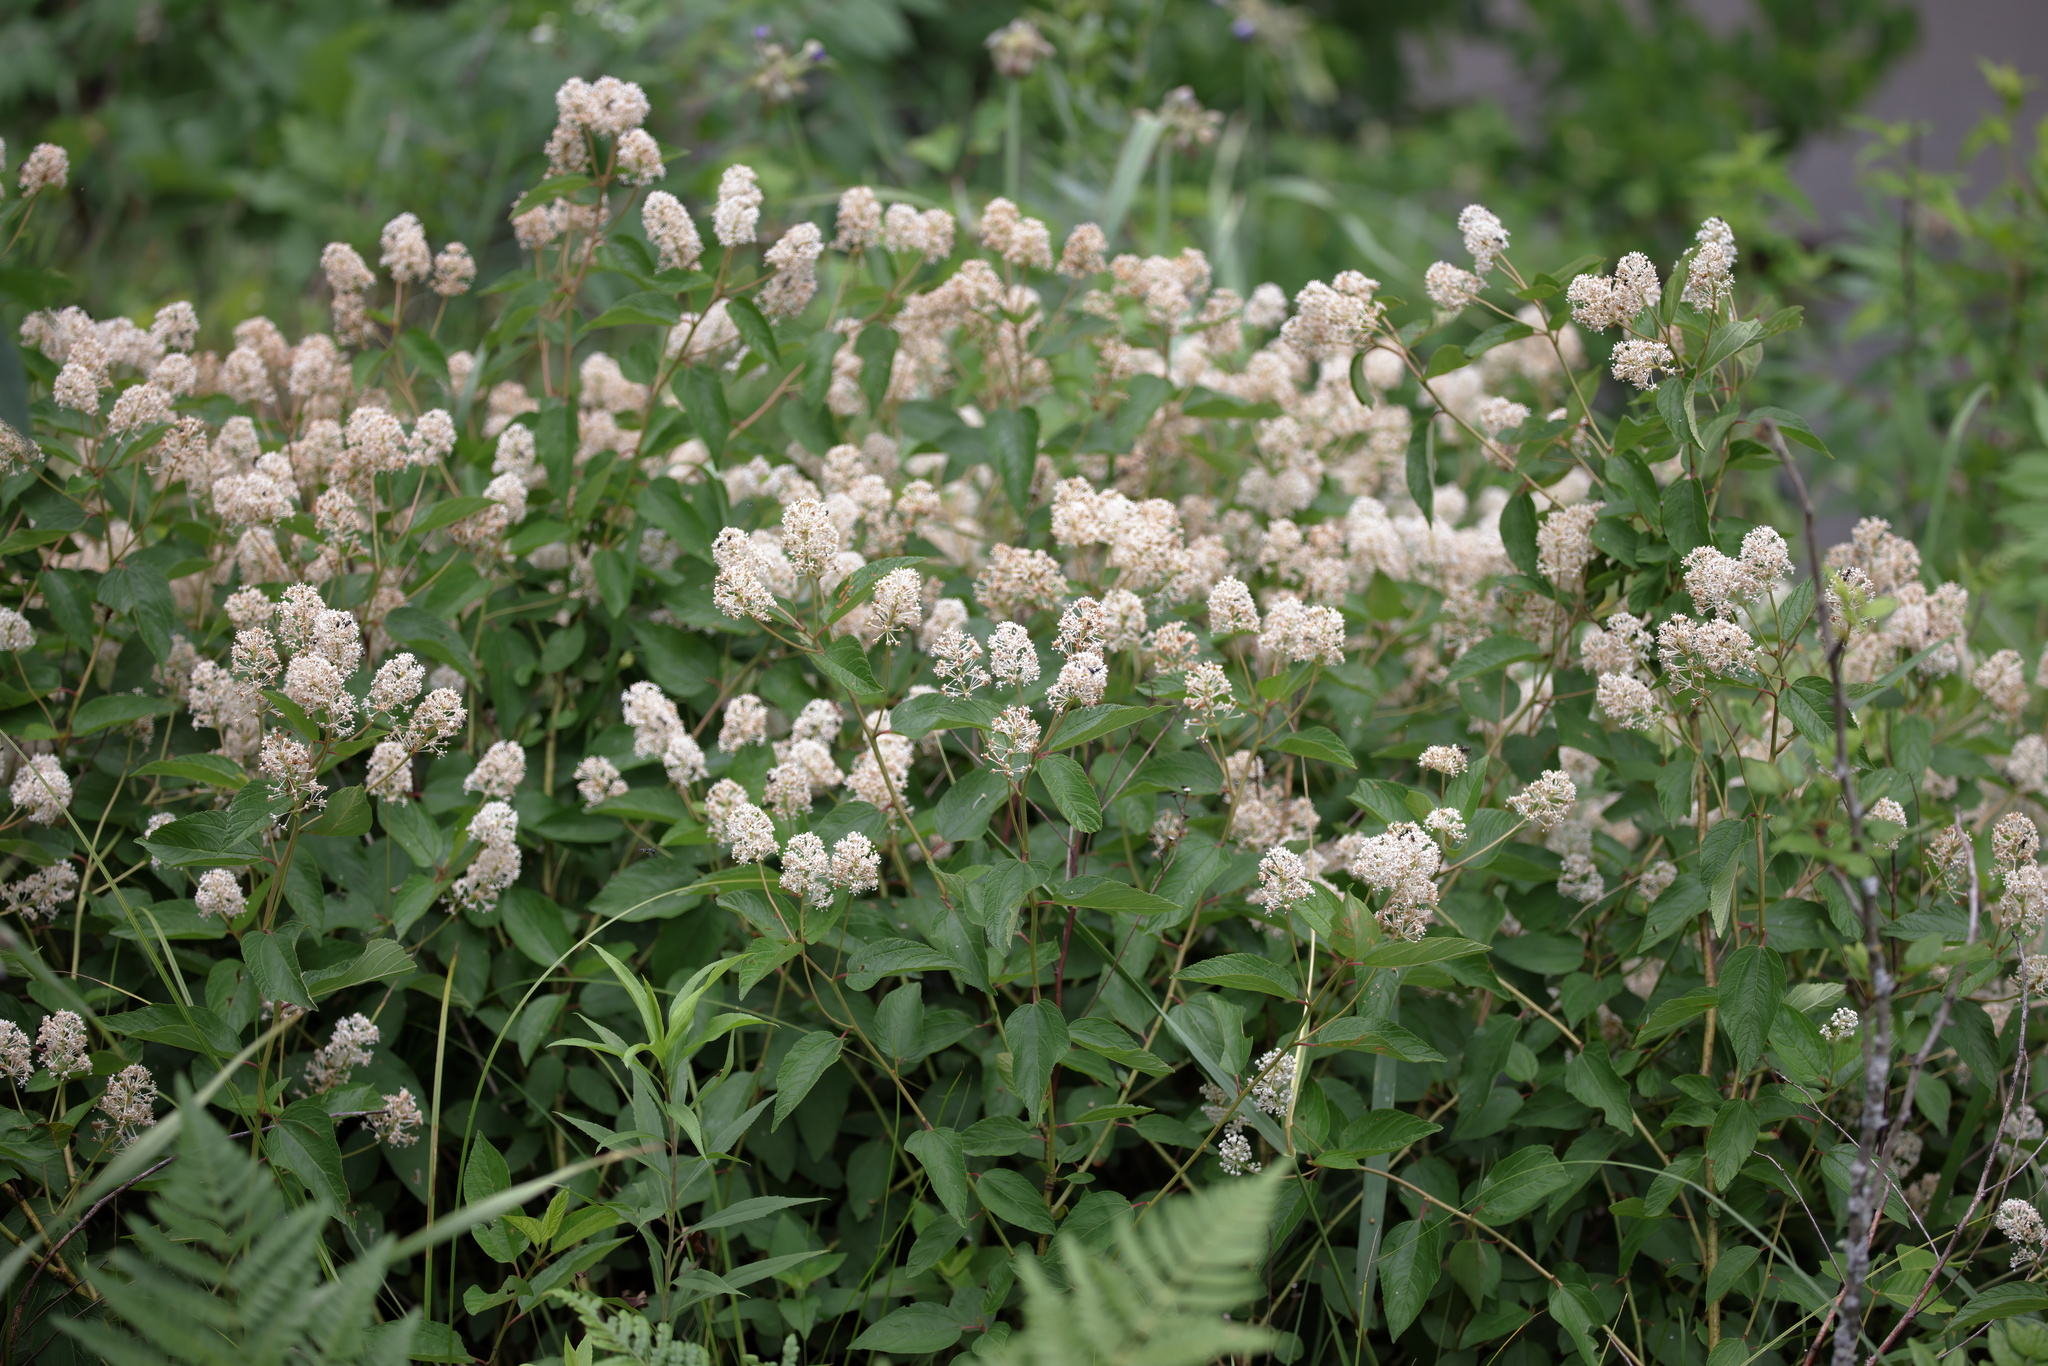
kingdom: Plantae
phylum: Tracheophyta
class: Magnoliopsida
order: Rosales
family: Rhamnaceae
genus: Ceanothus
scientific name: Ceanothus americanus
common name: Redroot
